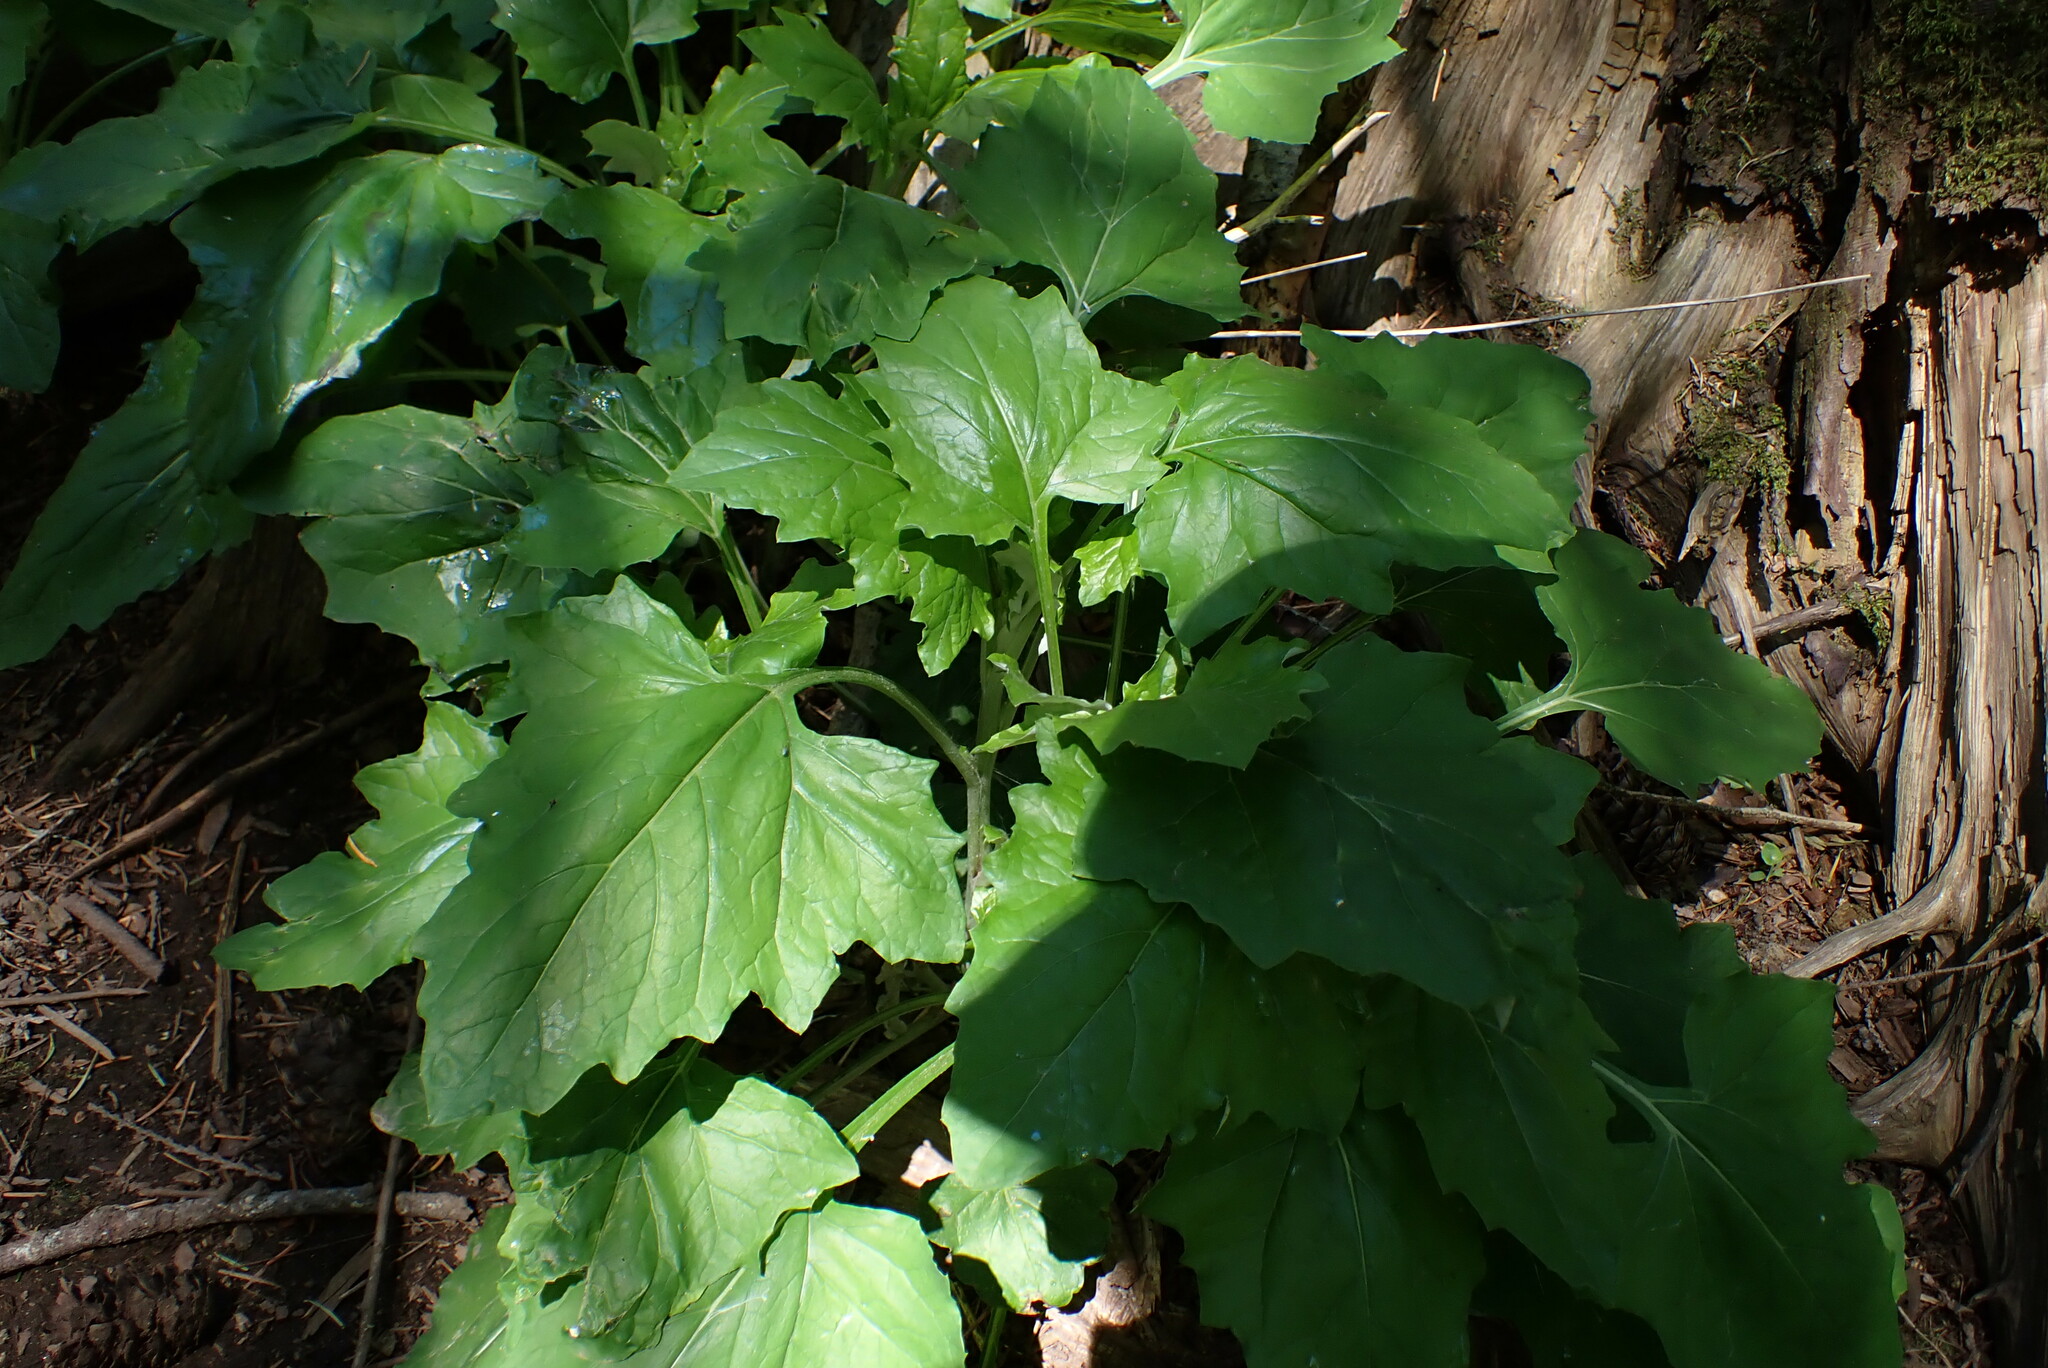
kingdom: Plantae
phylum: Tracheophyta
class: Magnoliopsida
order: Asterales
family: Asteraceae
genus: Adenocaulon
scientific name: Adenocaulon bicolor
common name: Trailplant
